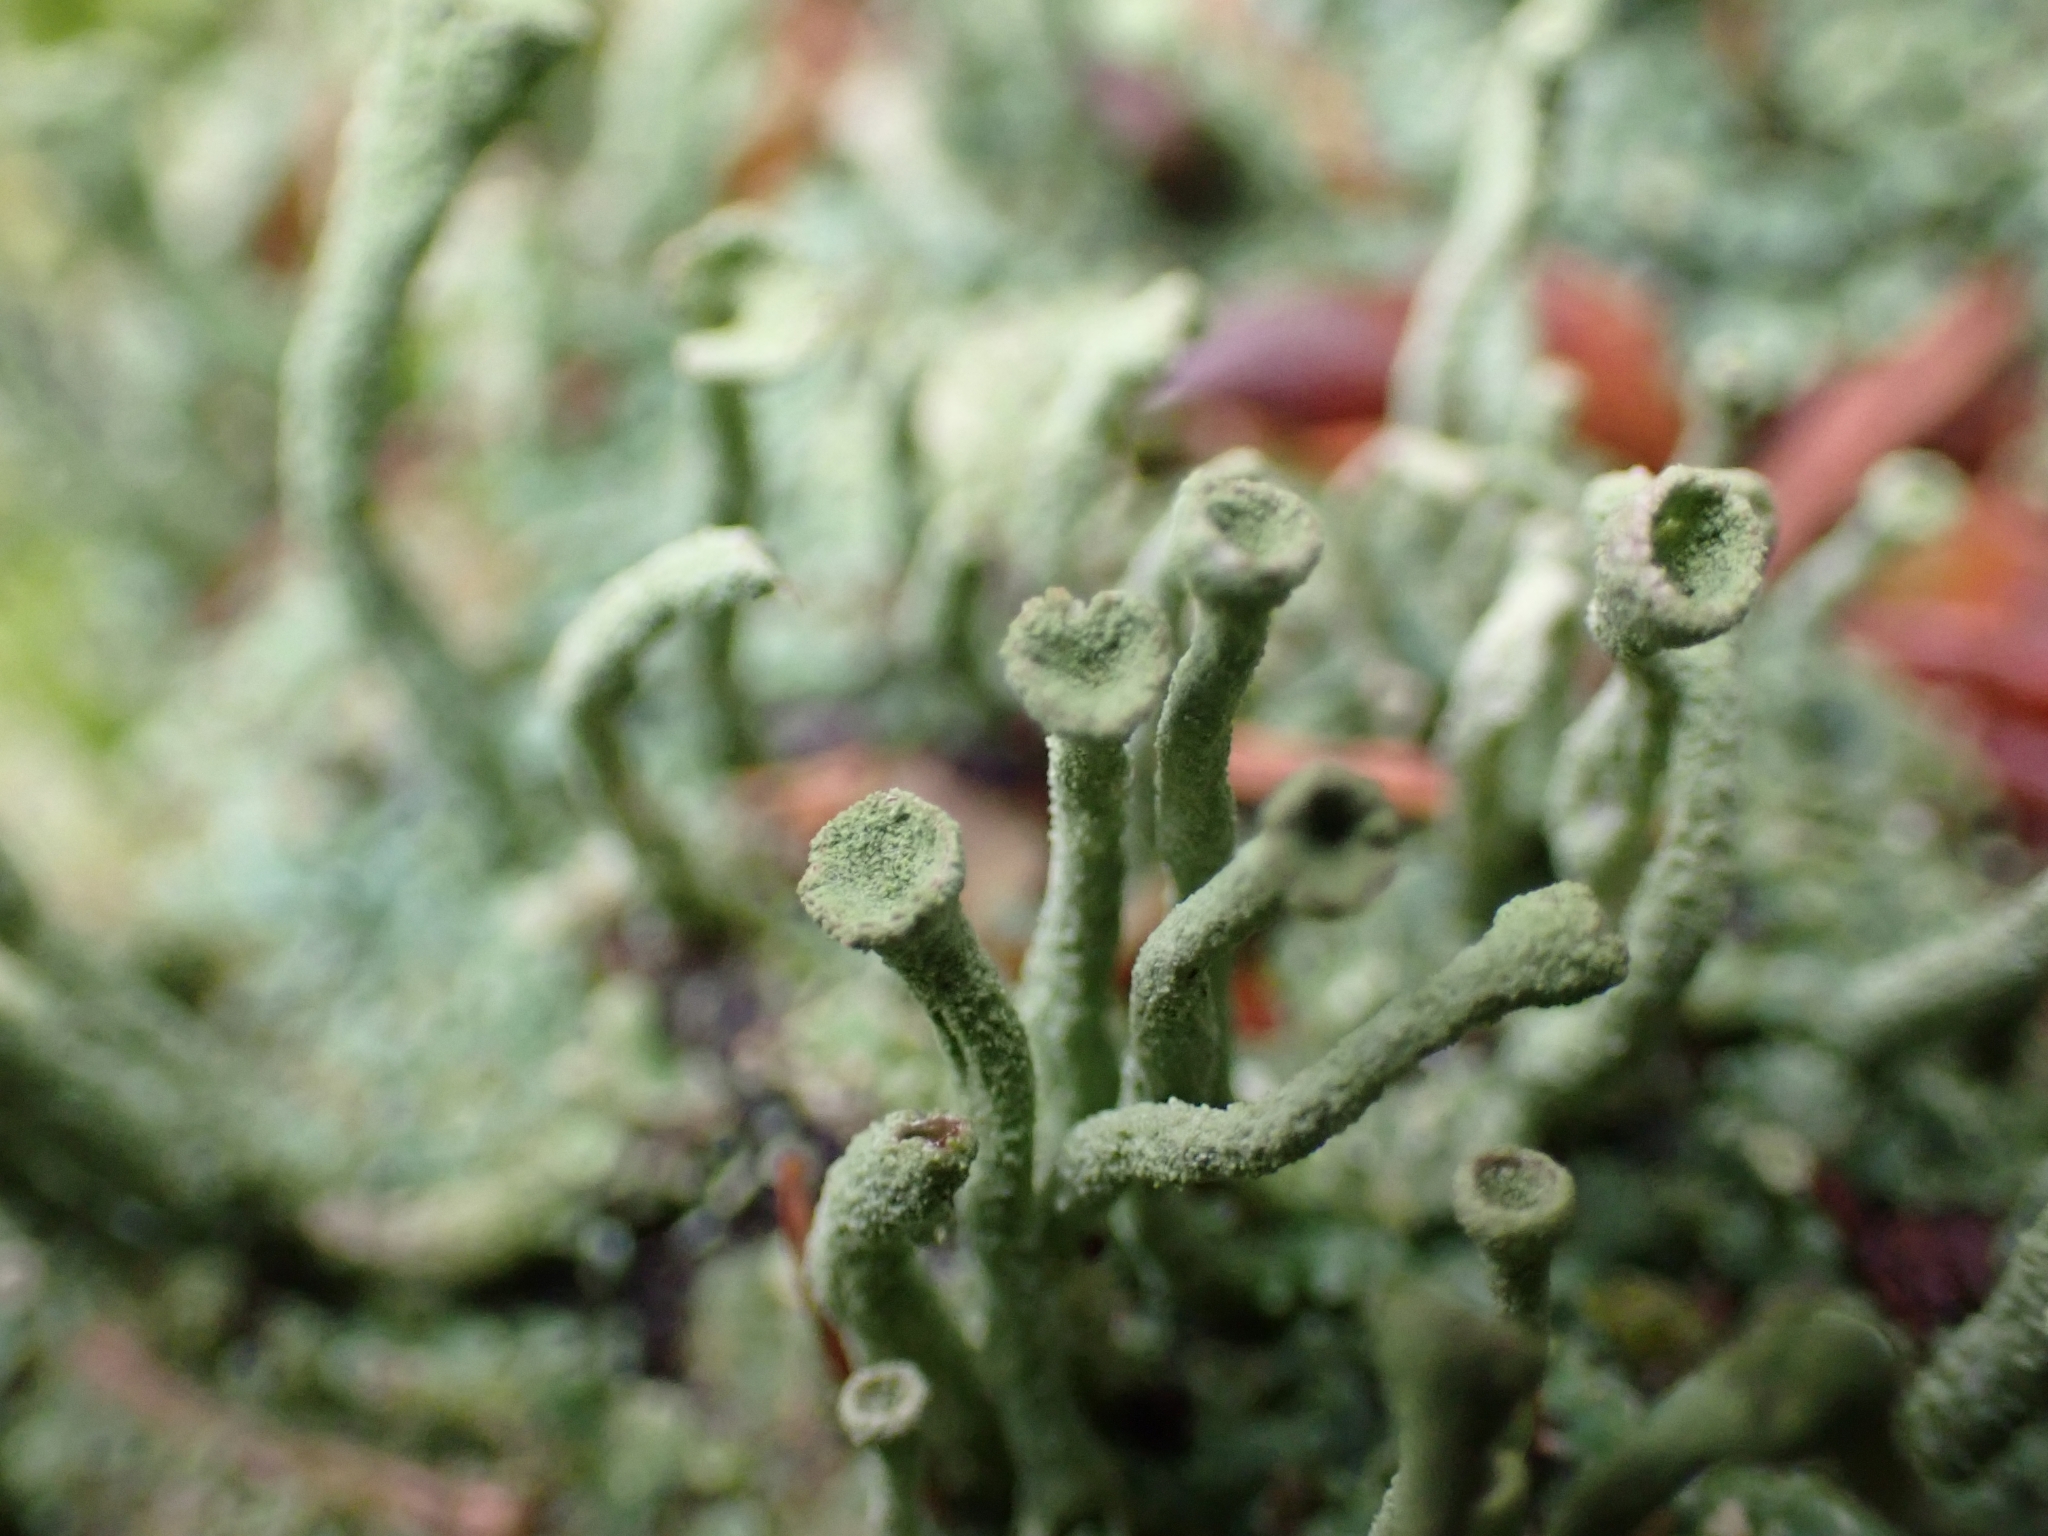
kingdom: Fungi
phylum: Ascomycota
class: Lecanoromycetes
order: Lecanorales
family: Cladoniaceae
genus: Cladonia
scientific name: Cladonia fimbriata
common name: Powdered trumpet lichen
